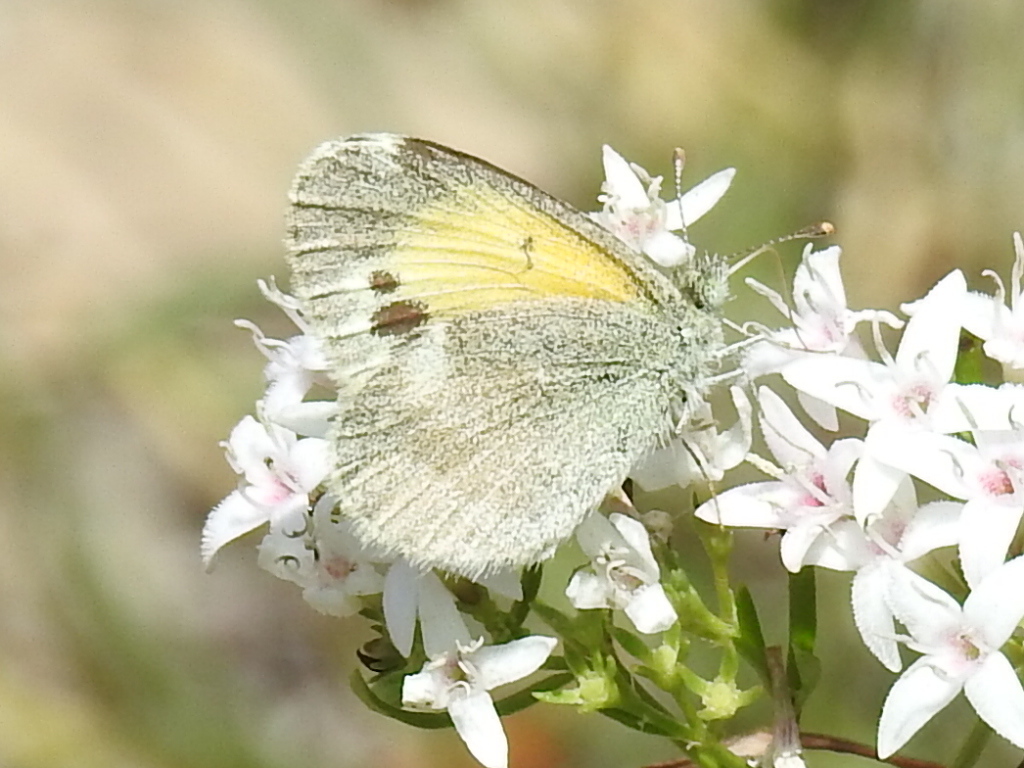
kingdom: Animalia
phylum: Arthropoda
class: Insecta
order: Lepidoptera
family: Pieridae
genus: Nathalis
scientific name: Nathalis iole
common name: Dainty sulphur
